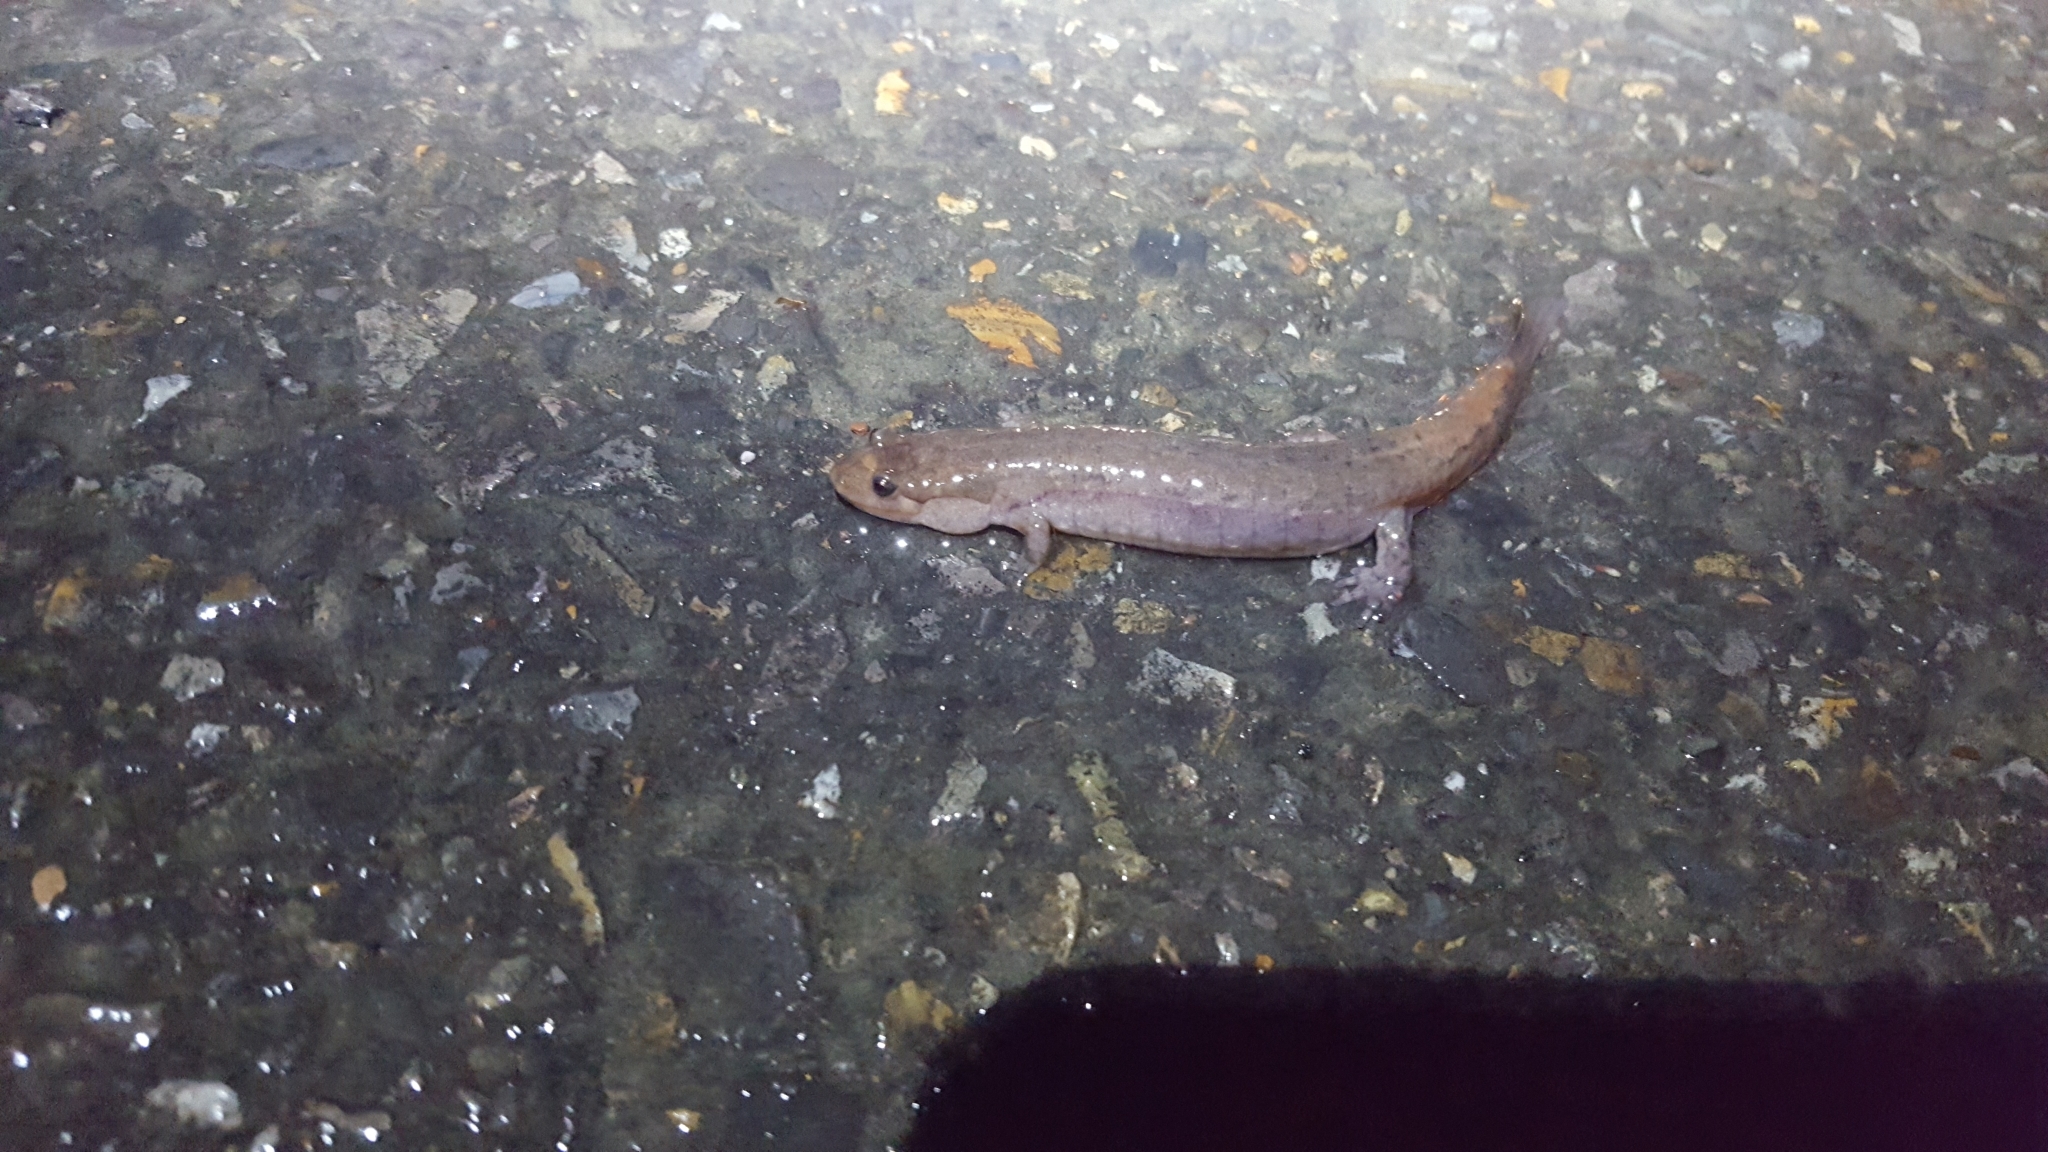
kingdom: Animalia
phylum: Chordata
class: Amphibia
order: Caudata
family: Plethodontidae
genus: Desmognathus
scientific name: Desmognathus brimleyorum
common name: Ouachita dusky salamander
